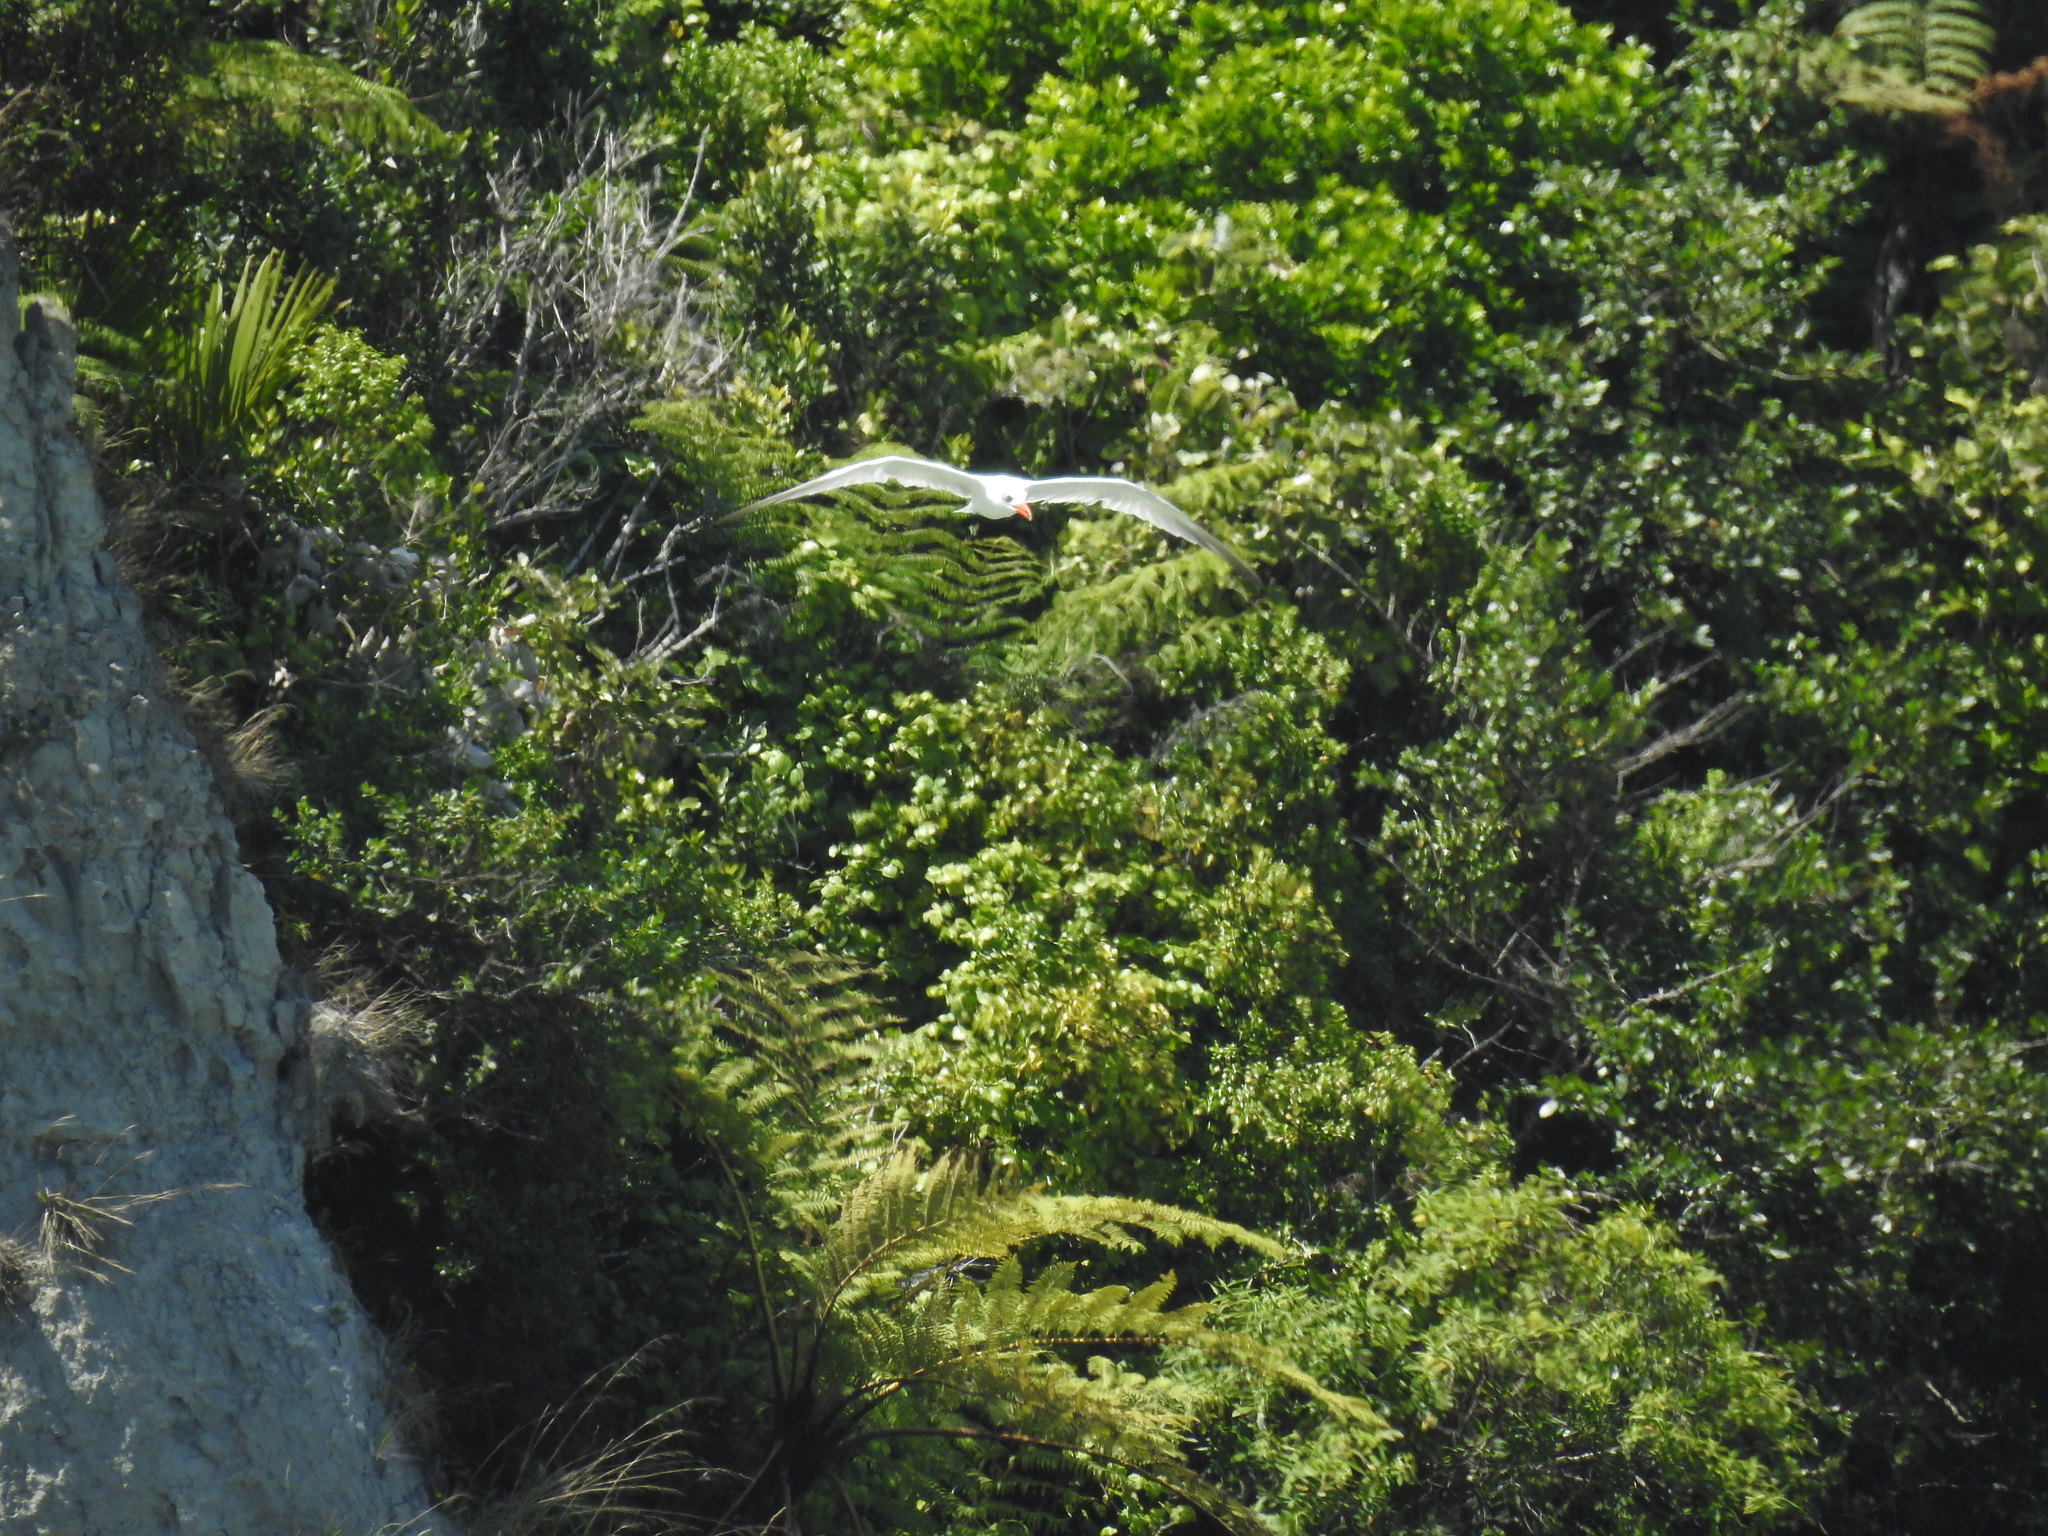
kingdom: Animalia
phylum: Chordata
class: Aves
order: Charadriiformes
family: Laridae
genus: Hydroprogne
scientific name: Hydroprogne caspia
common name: Caspian tern
